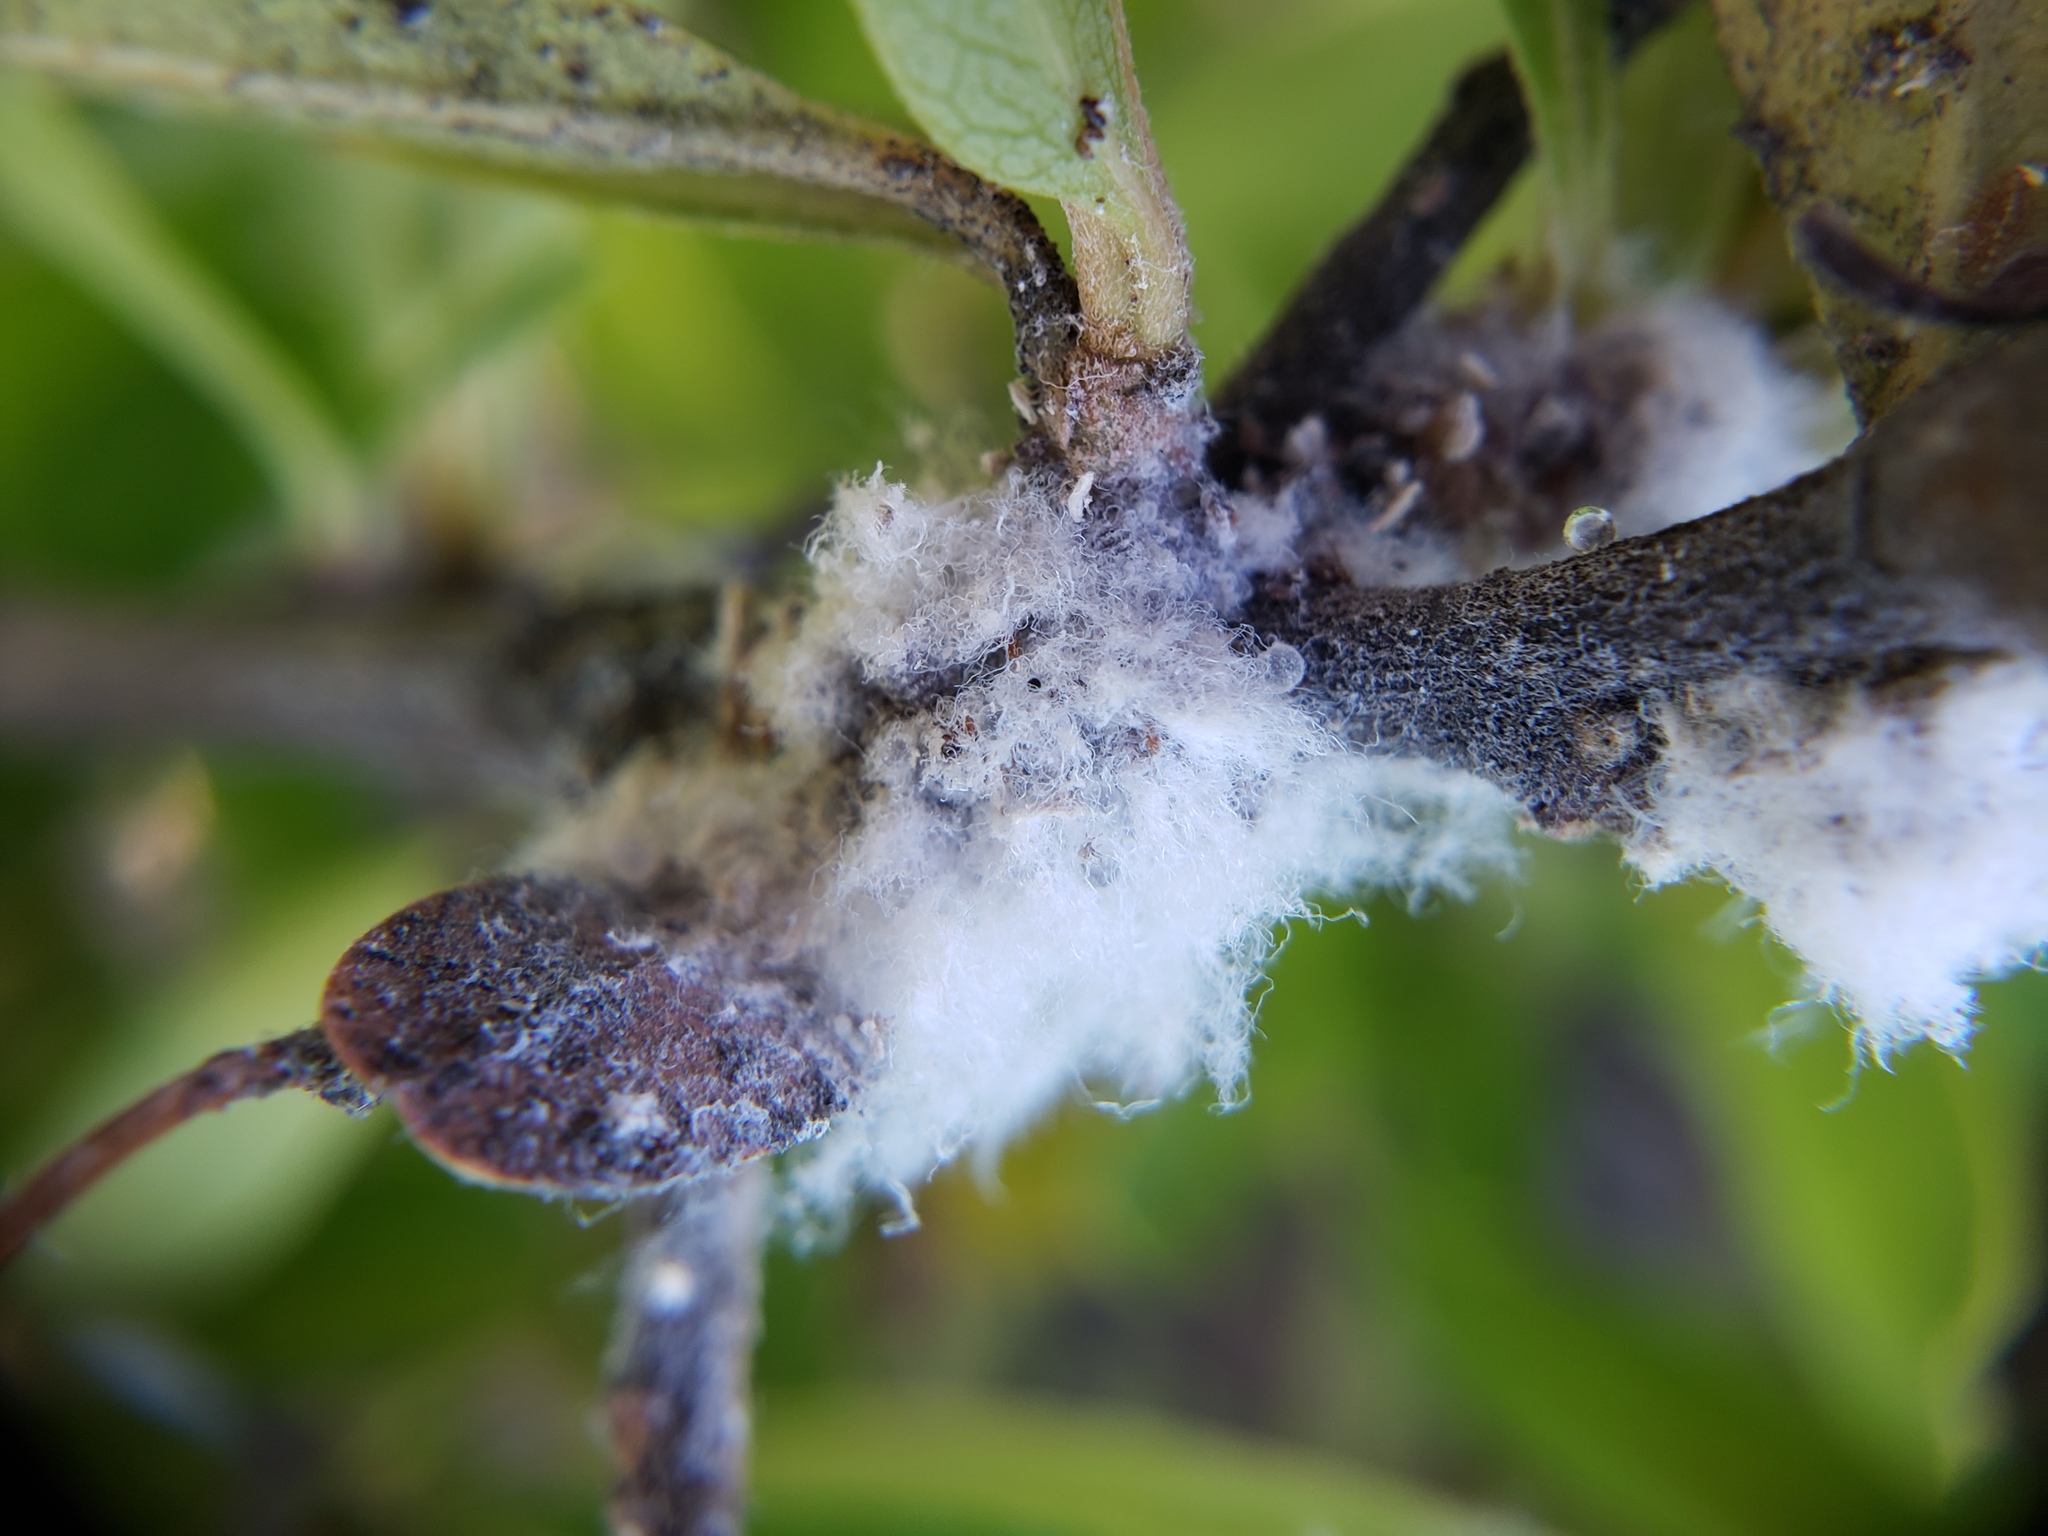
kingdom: Animalia
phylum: Arthropoda
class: Insecta
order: Hemiptera
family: Aphididae
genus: Eriosoma
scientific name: Eriosoma lanigerum
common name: Woolly apple aphid
